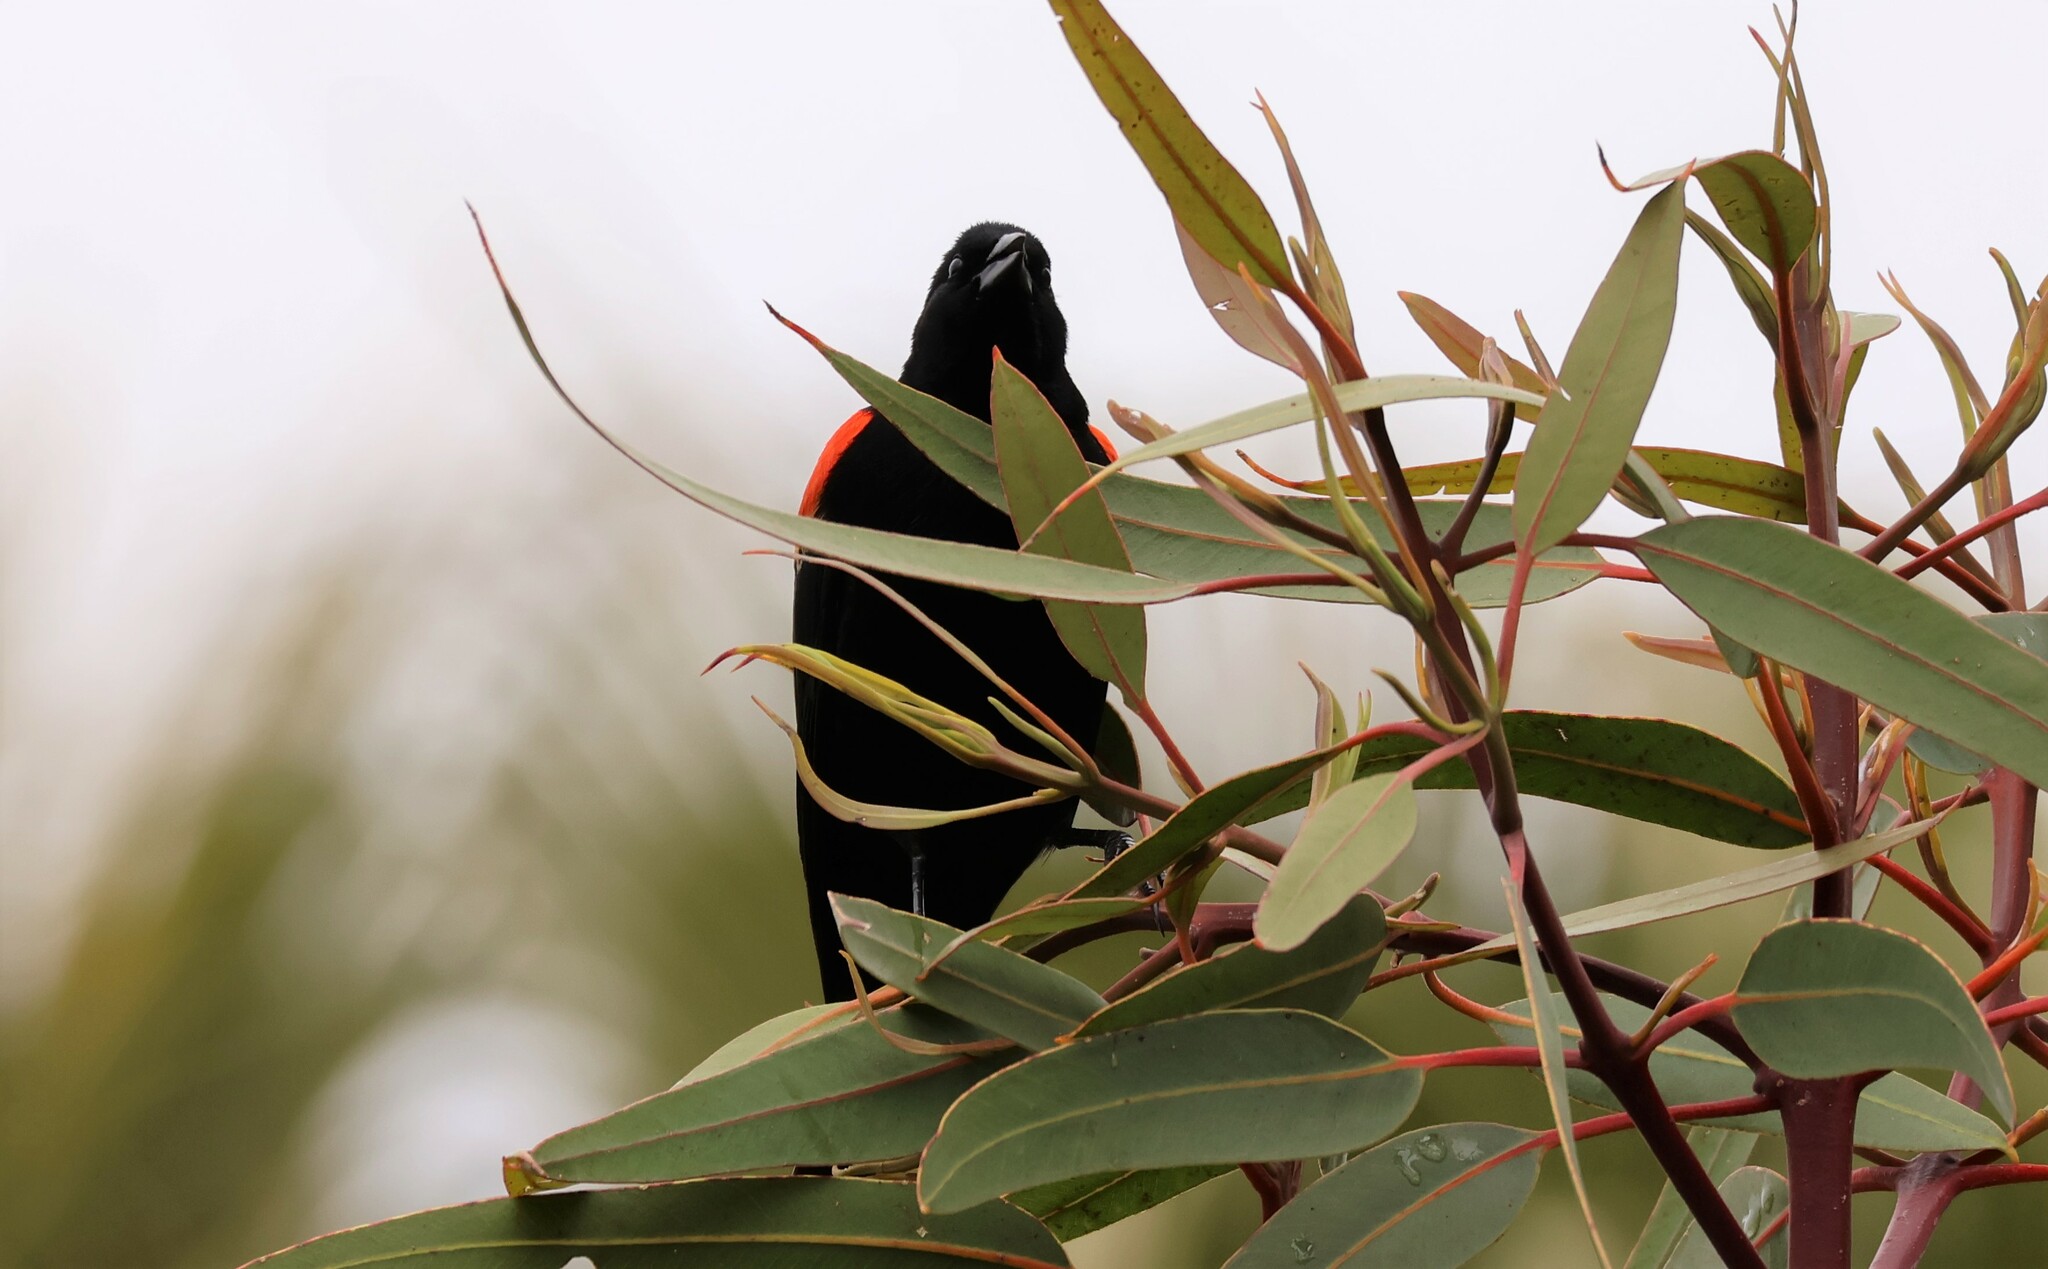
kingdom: Animalia
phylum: Chordata
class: Aves
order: Passeriformes
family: Icteridae
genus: Agelaius
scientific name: Agelaius phoeniceus
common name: Red-winged blackbird
